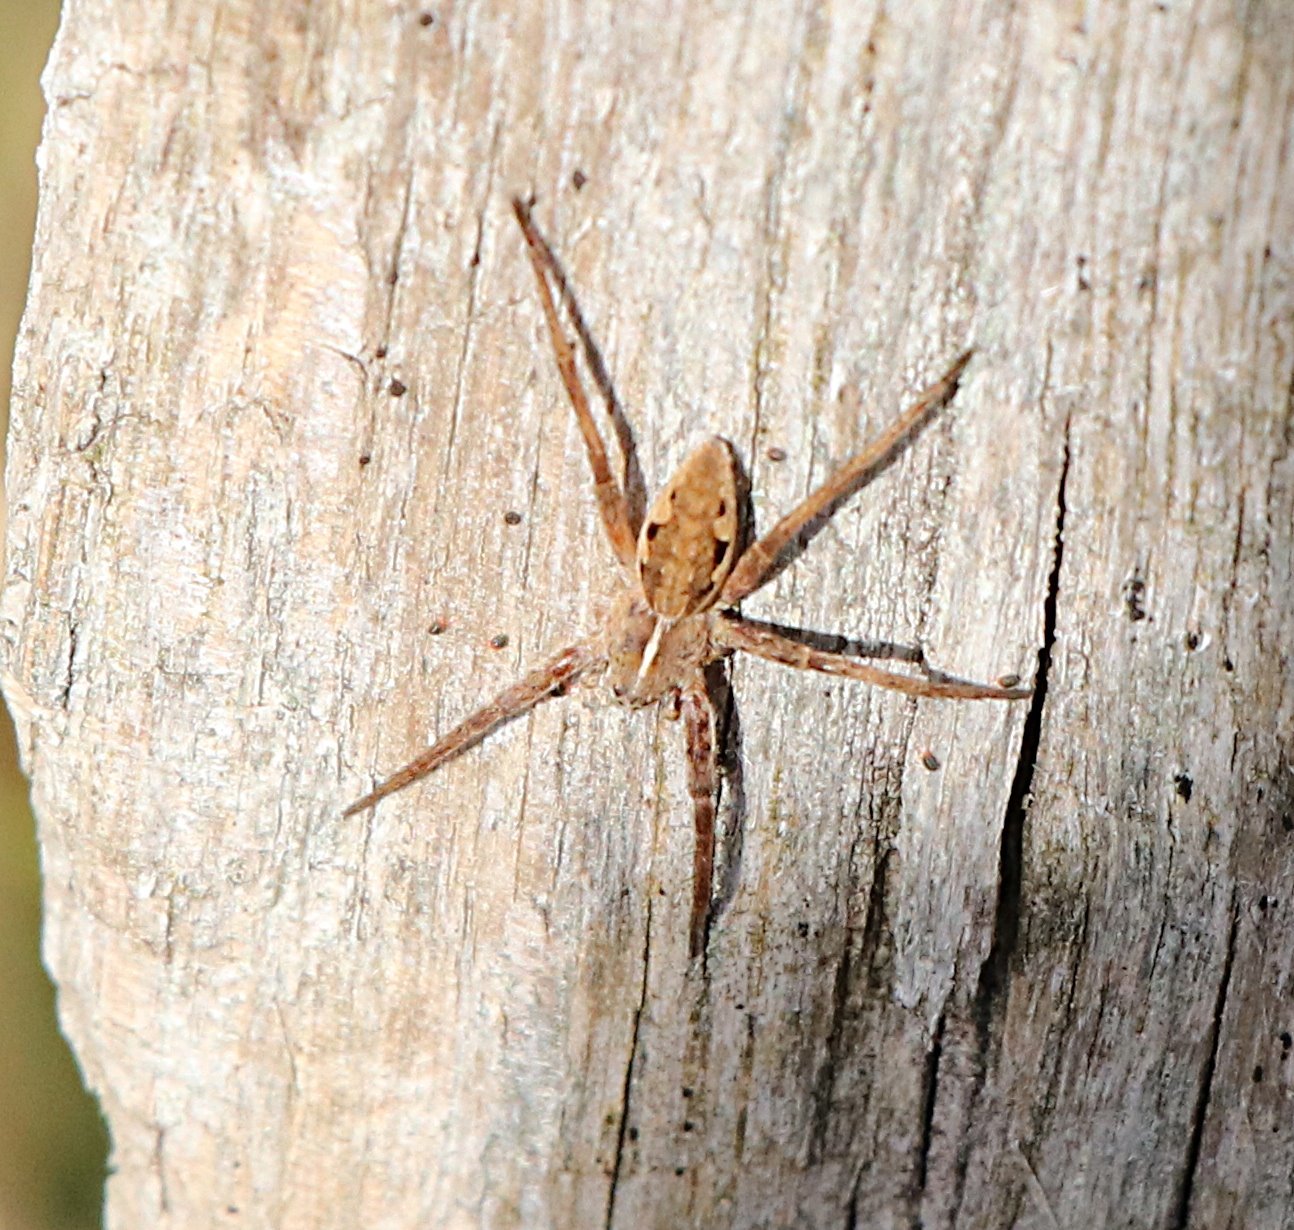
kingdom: Animalia
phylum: Arthropoda
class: Arachnida
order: Araneae
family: Pisauridae
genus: Pisaura
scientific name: Pisaura mirabilis
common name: Tent spider
